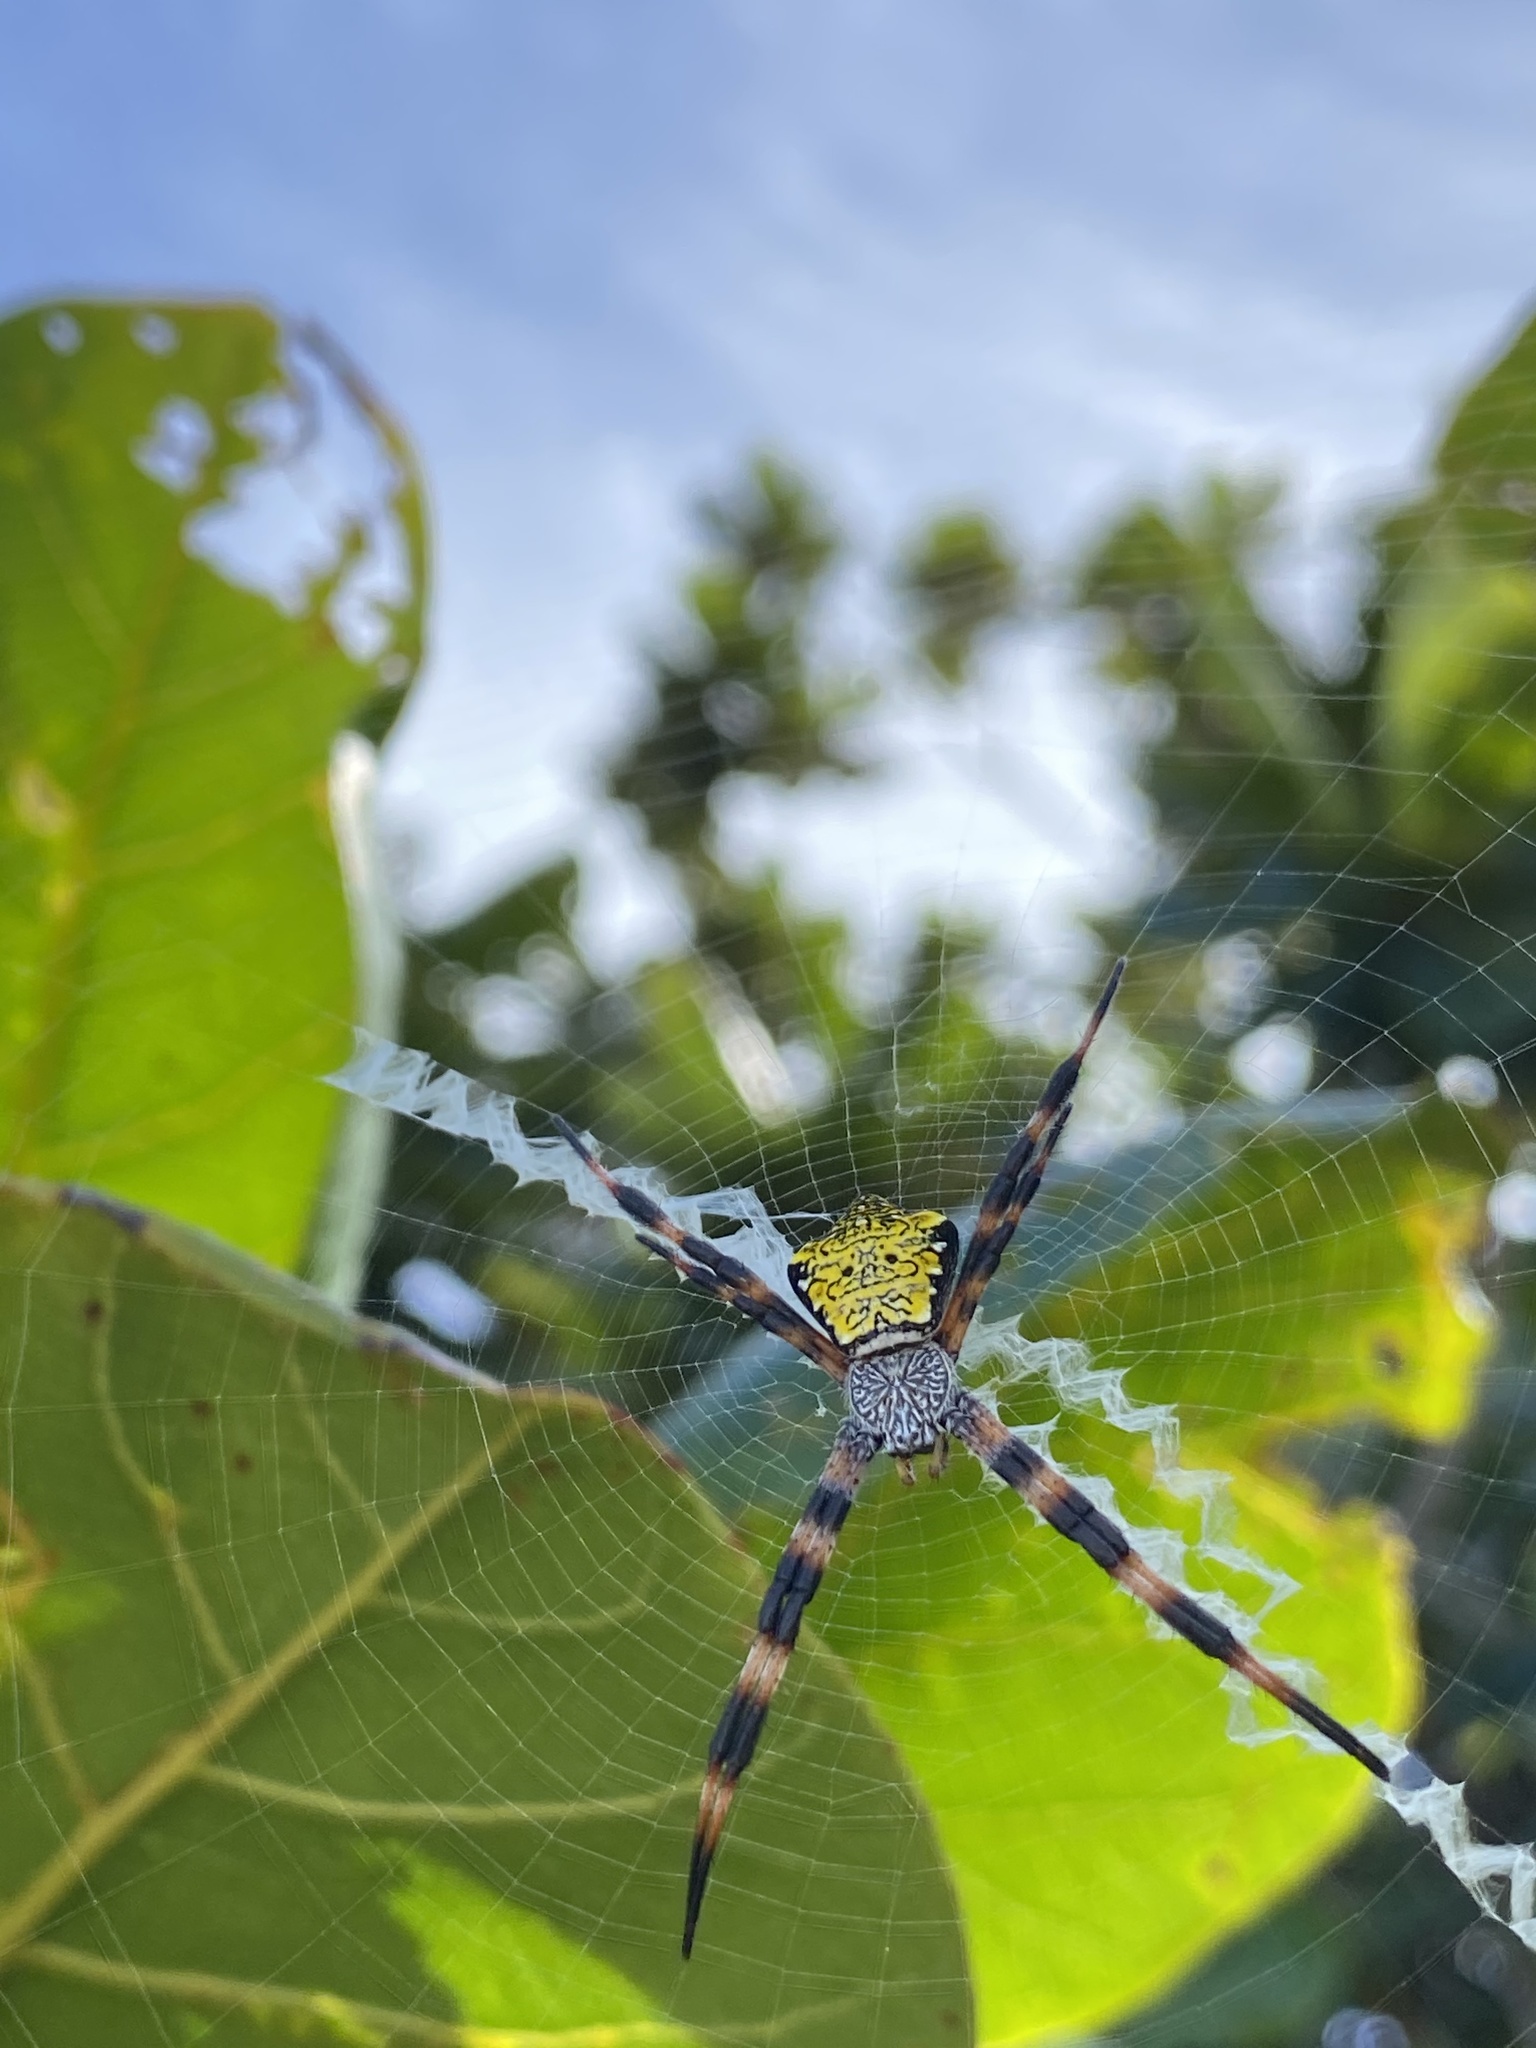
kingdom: Animalia
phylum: Arthropoda
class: Arachnida
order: Araneae
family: Araneidae
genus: Argiope
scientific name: Argiope appensa
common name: Garden spider
